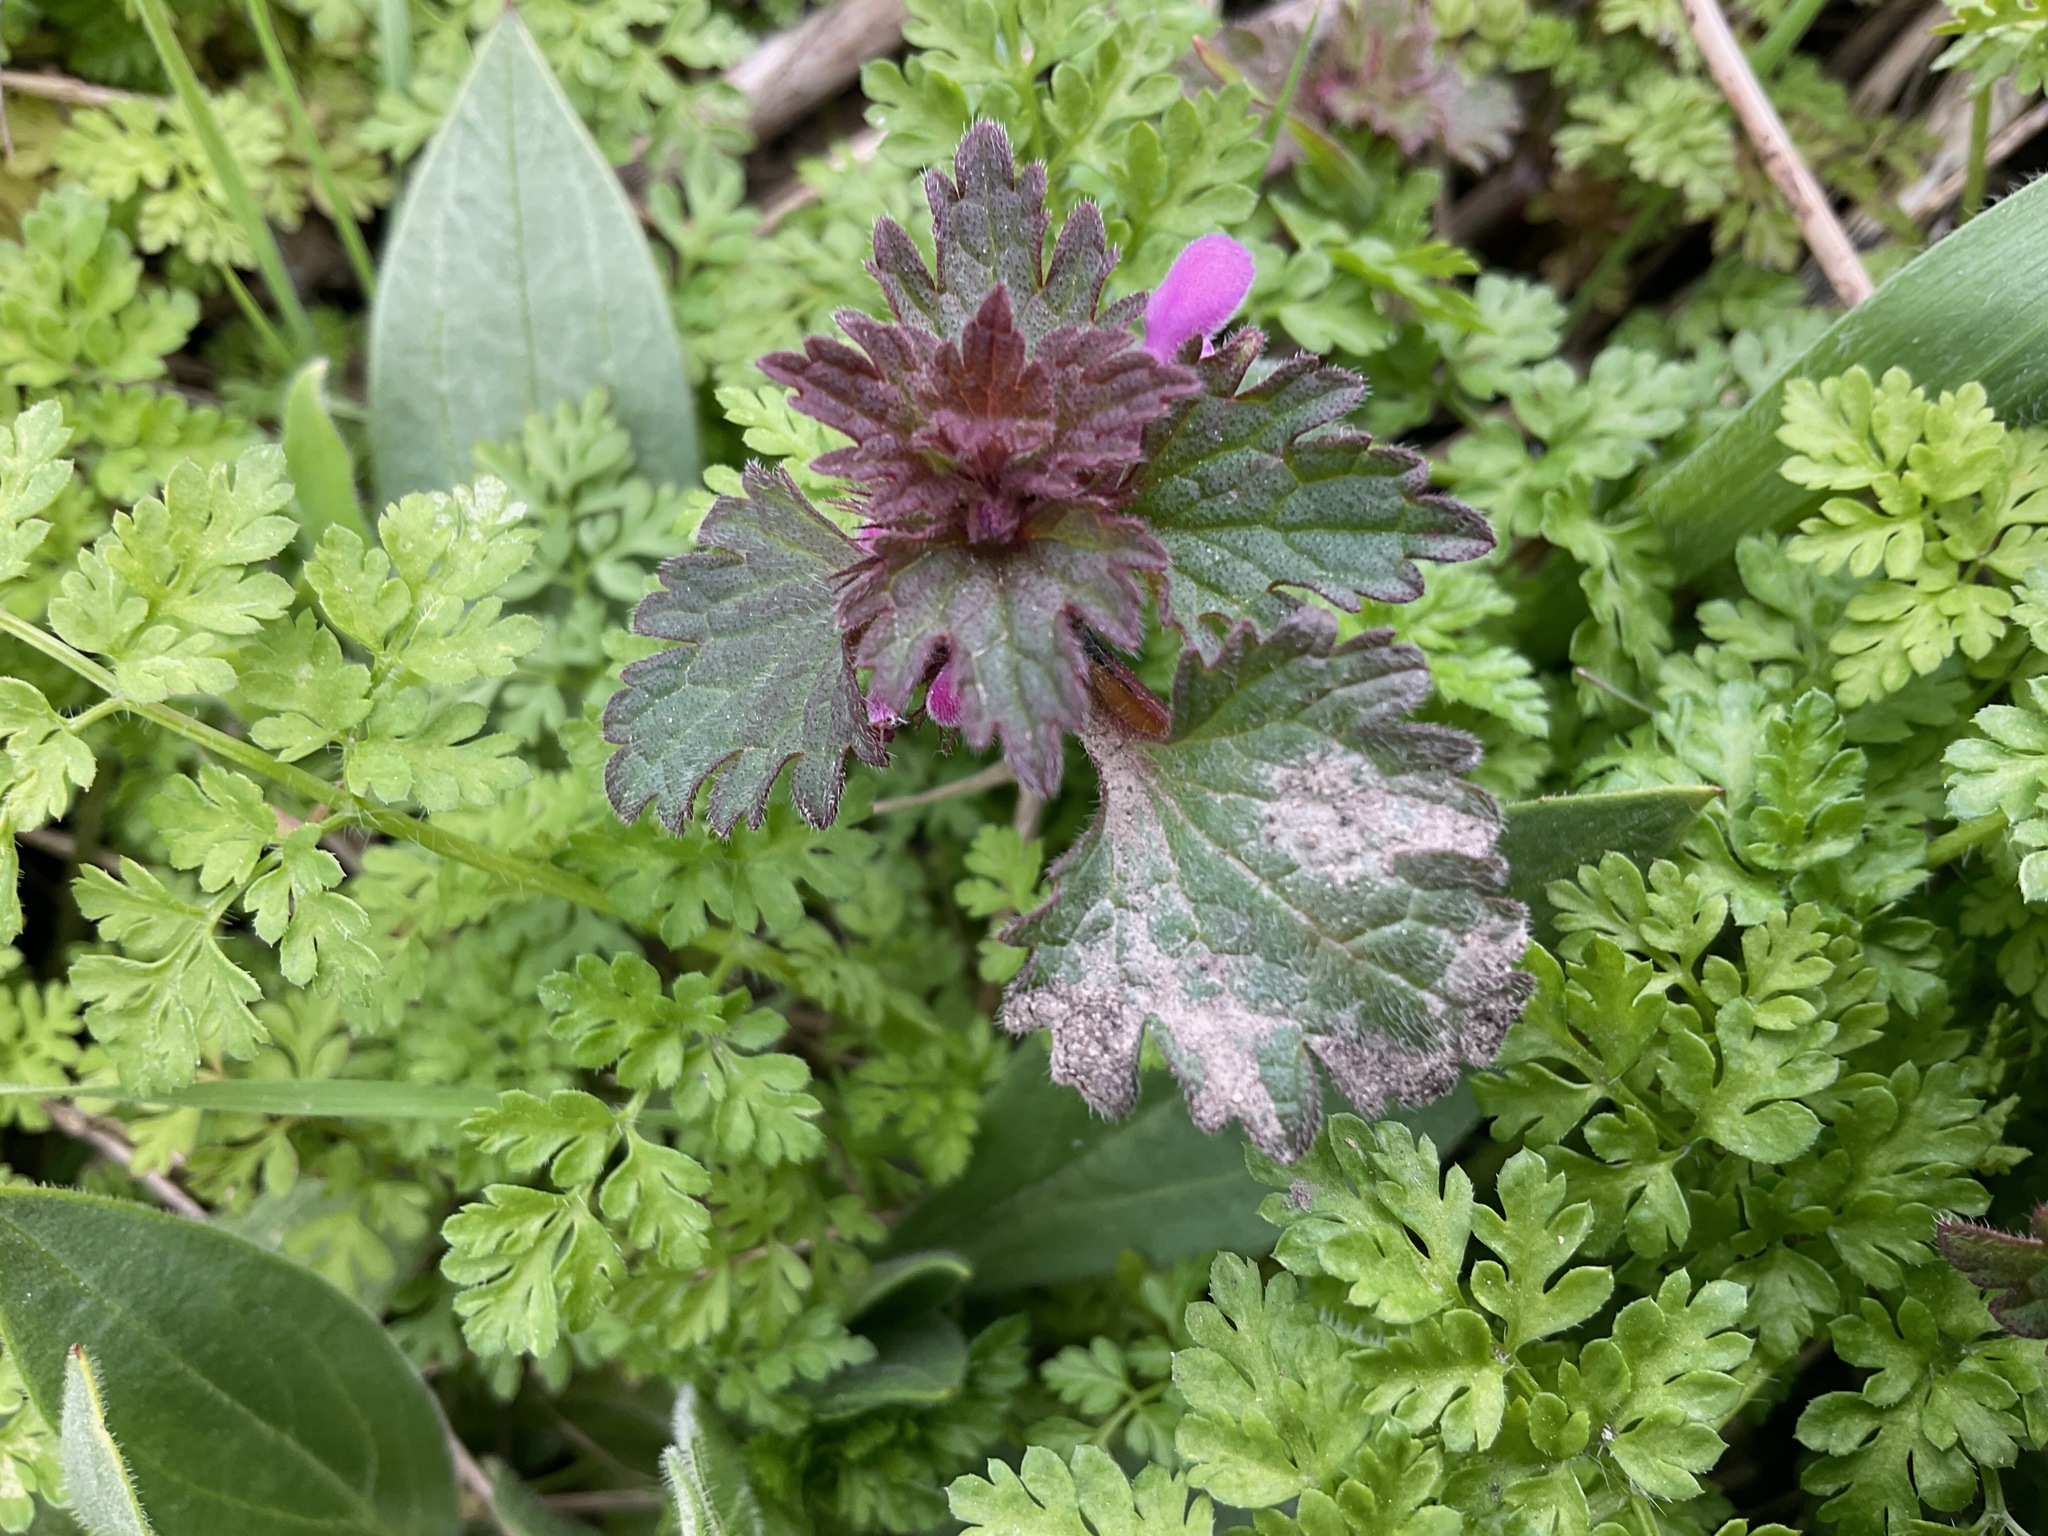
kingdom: Plantae
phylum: Tracheophyta
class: Magnoliopsida
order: Lamiales
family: Lamiaceae
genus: Lamium
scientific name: Lamium hybridum
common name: Cut-leaved dead-nettle
